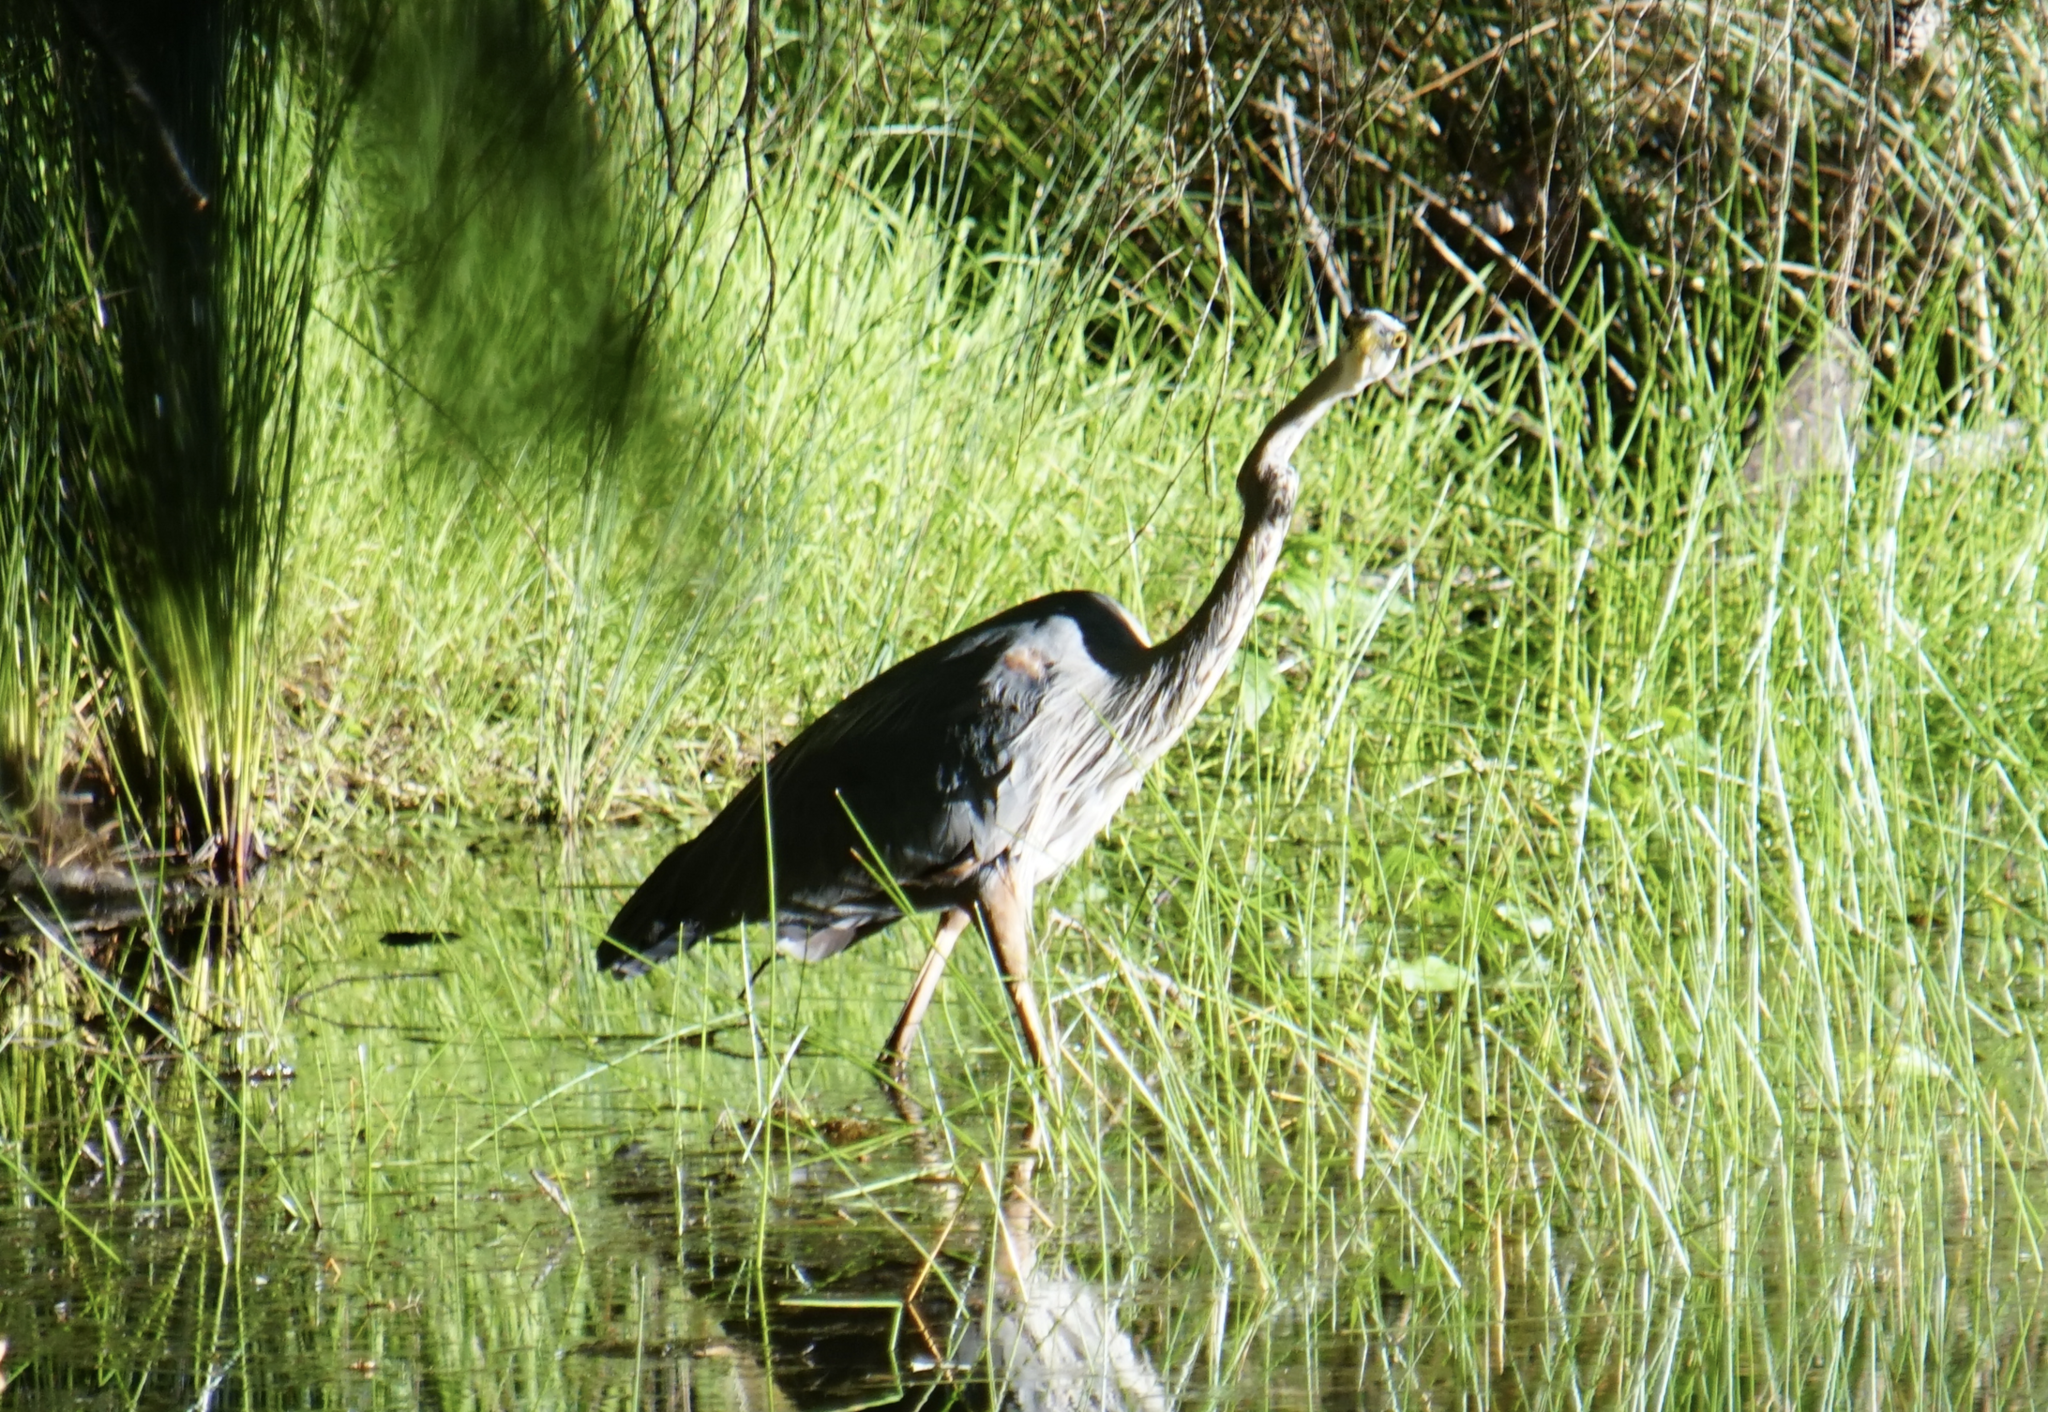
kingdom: Animalia
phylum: Chordata
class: Aves
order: Pelecaniformes
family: Ardeidae
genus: Ardea
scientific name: Ardea herodias
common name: Great blue heron
